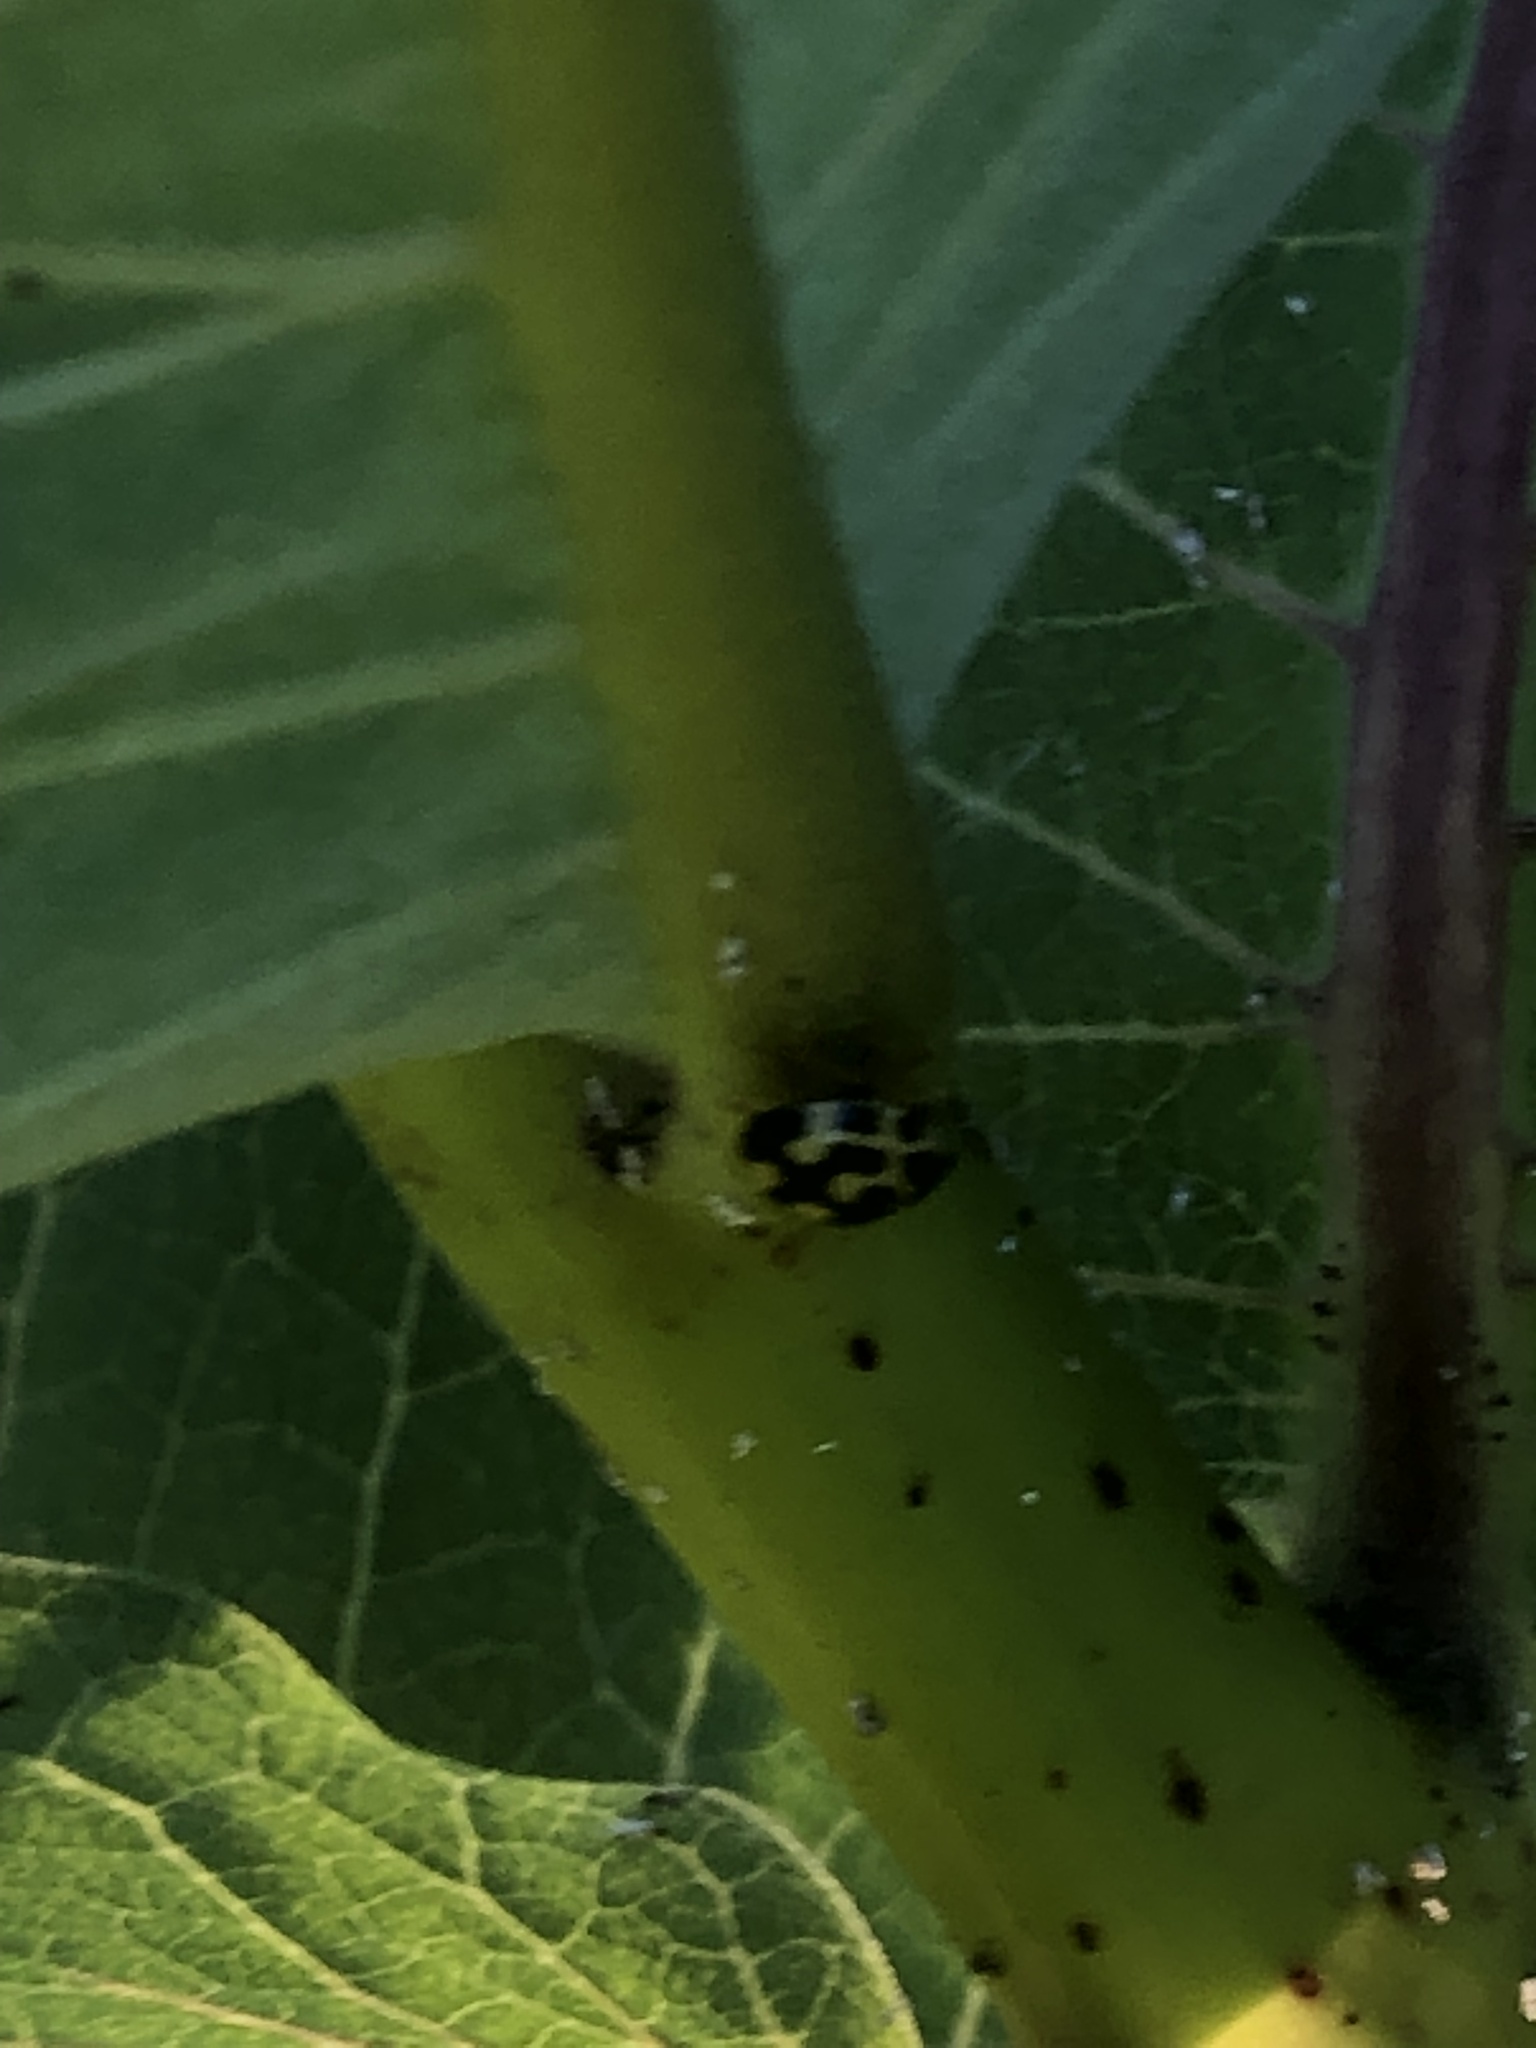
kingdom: Animalia
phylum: Arthropoda
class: Insecta
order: Coleoptera
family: Coccinellidae
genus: Propylaea
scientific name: Propylaea quatuordecimpunctata
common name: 14-spotted ladybird beetle
